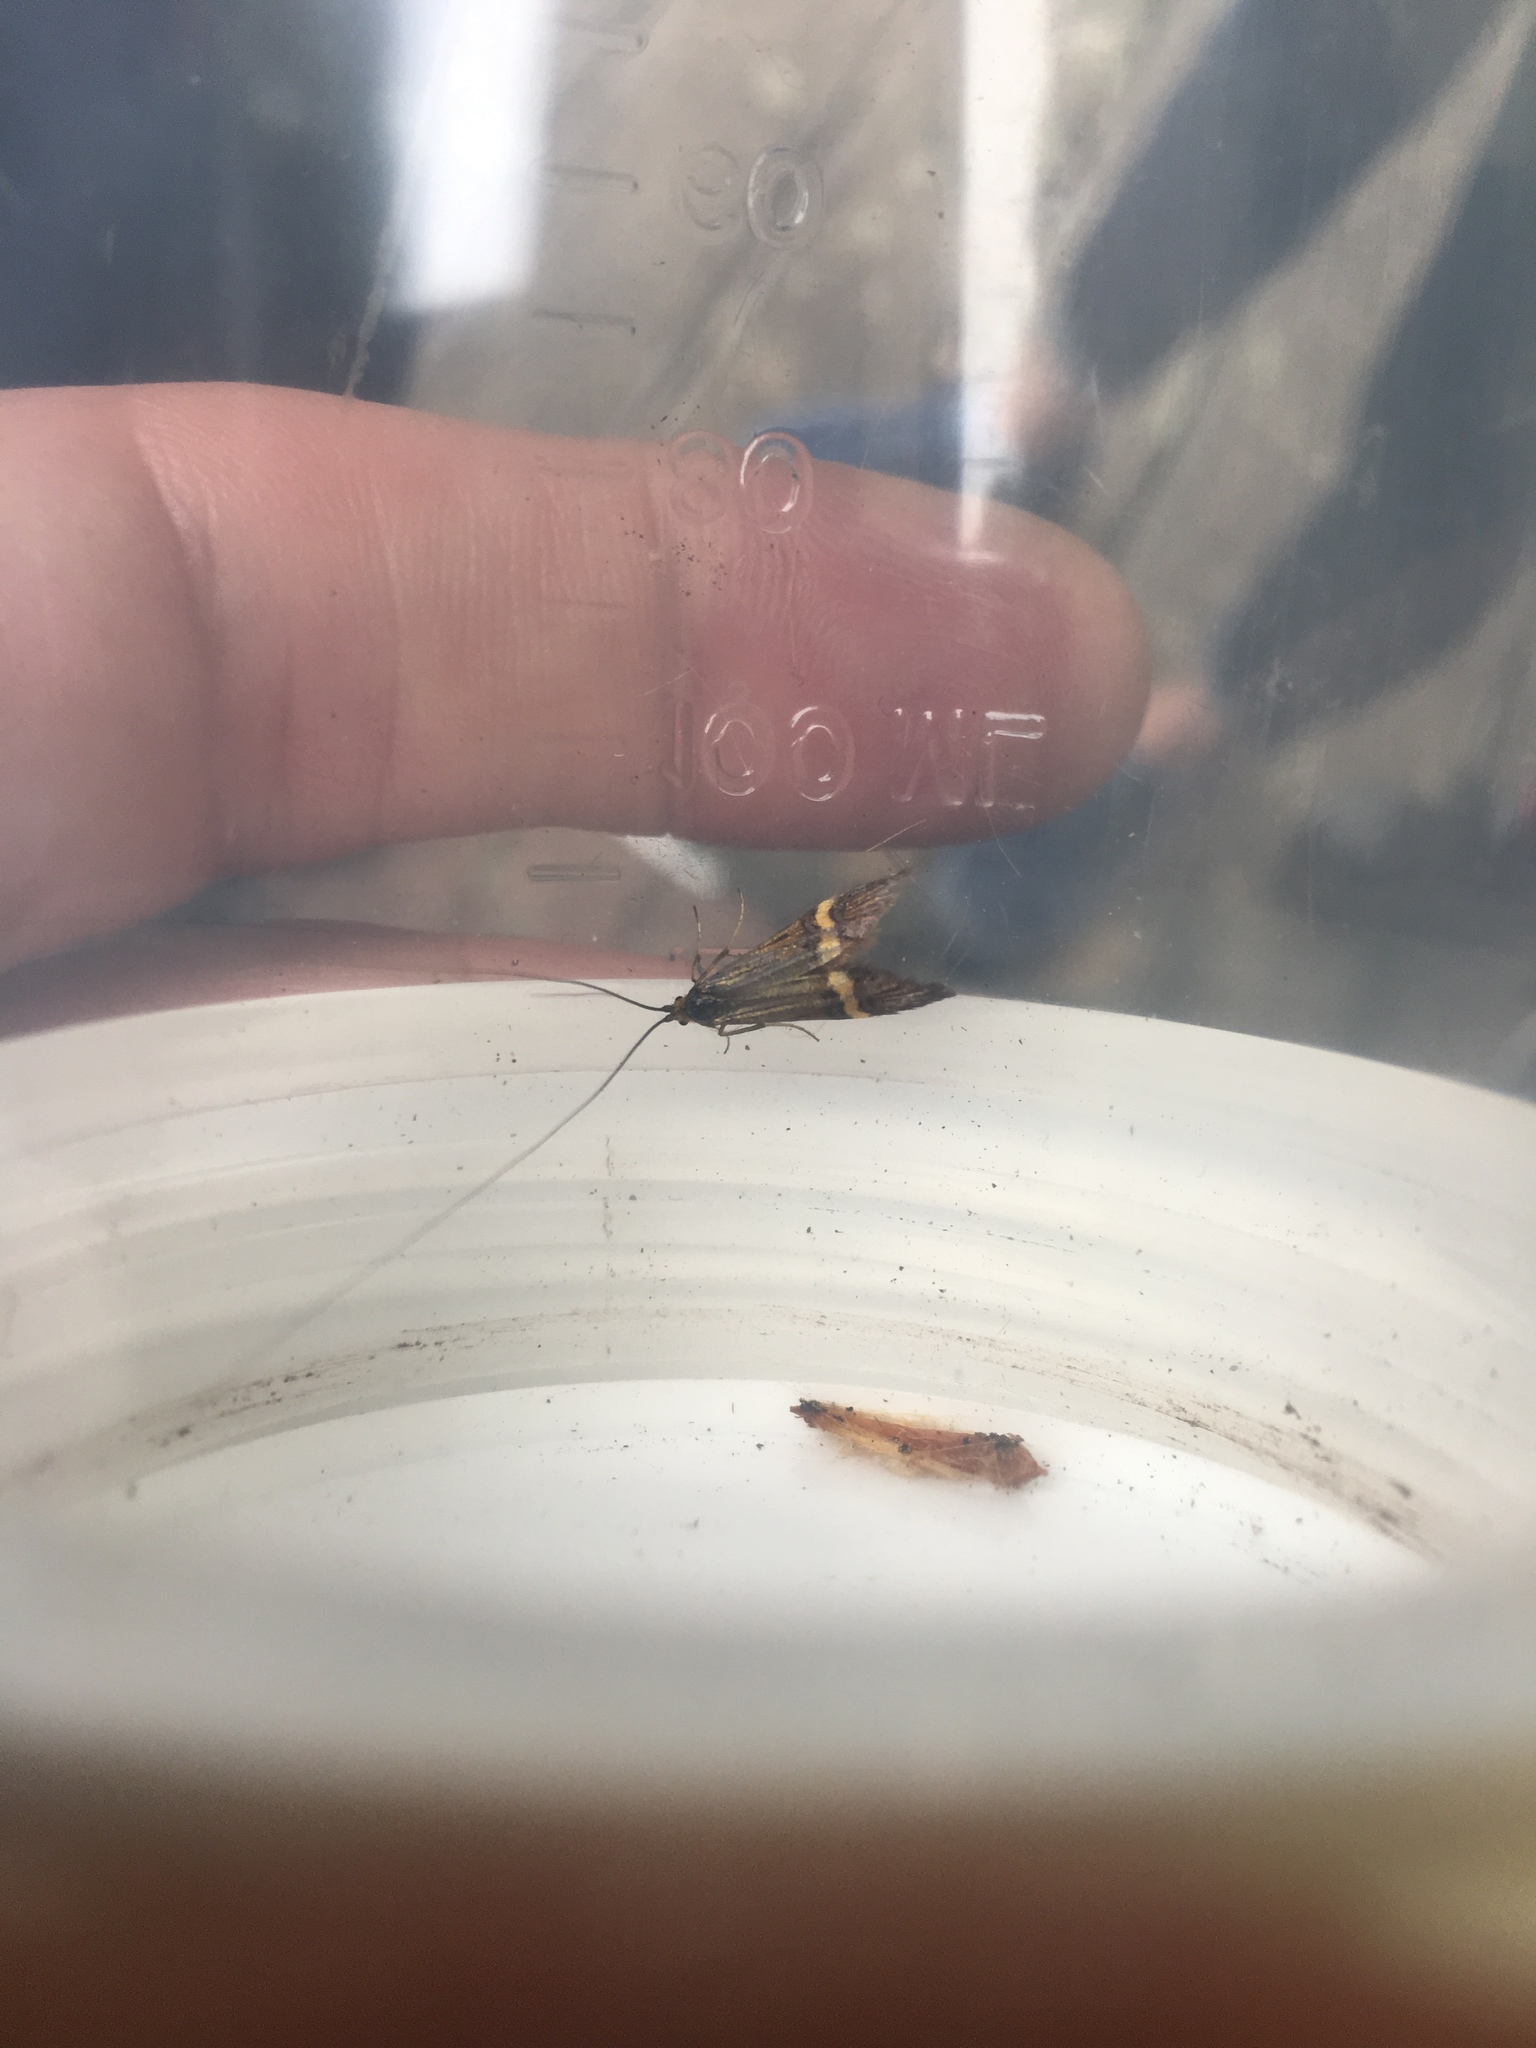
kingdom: Animalia
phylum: Arthropoda
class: Insecta
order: Lepidoptera
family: Adelidae
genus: Nemophora
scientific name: Nemophora degeerella
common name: Yellow-barred long-horn
